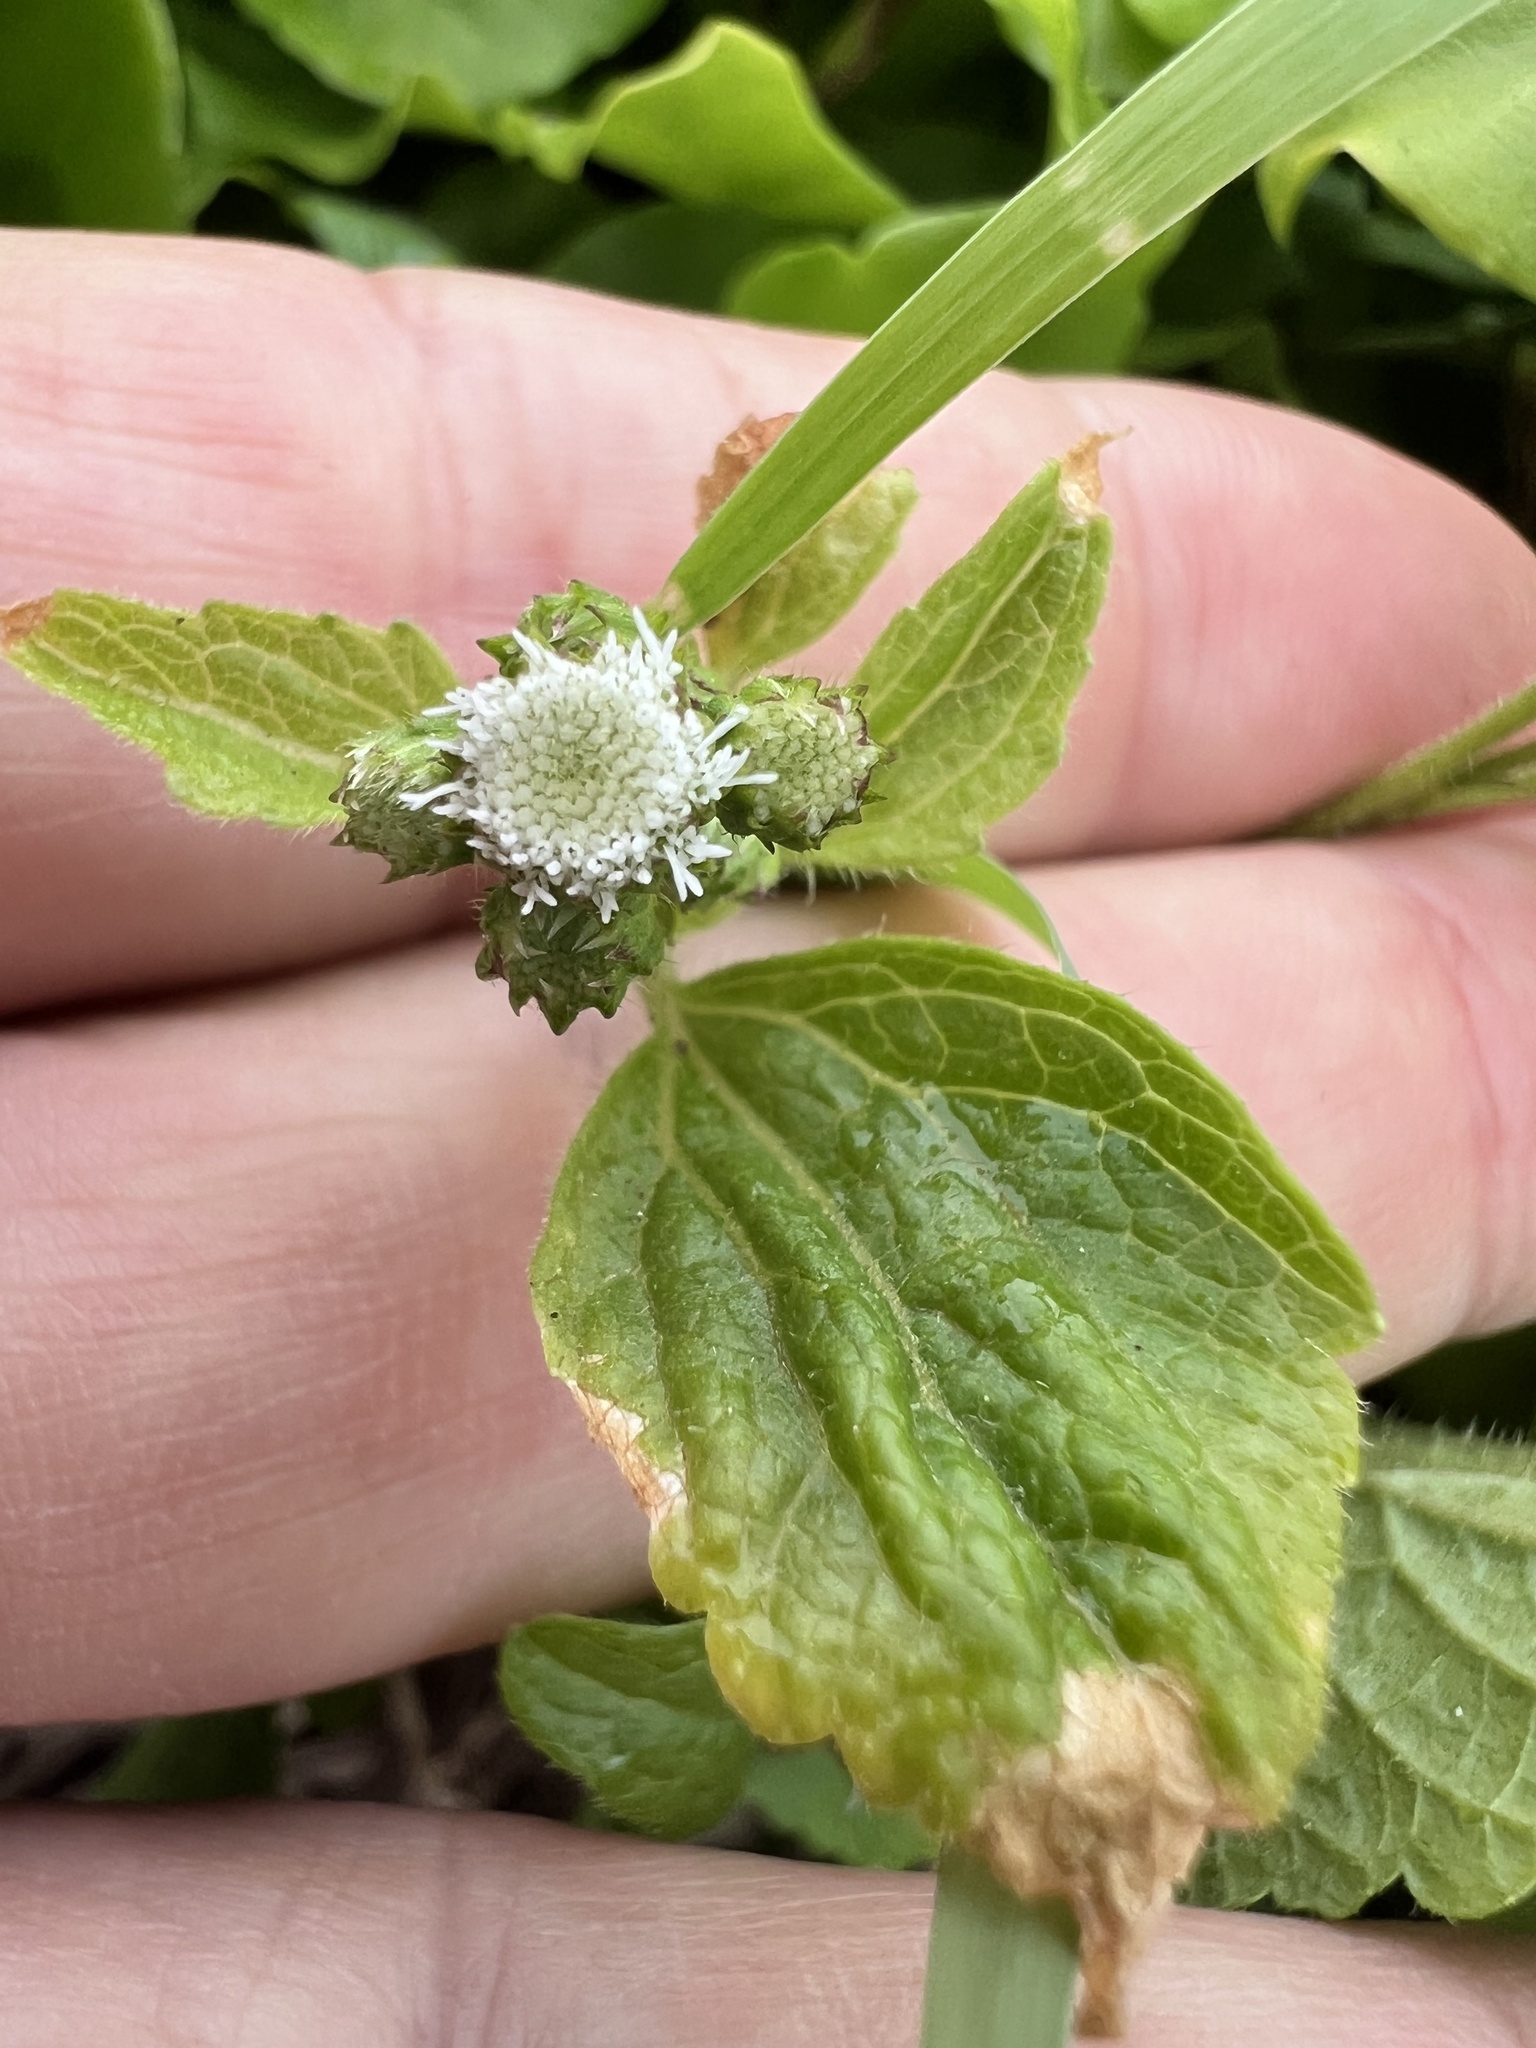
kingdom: Plantae
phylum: Tracheophyta
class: Magnoliopsida
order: Asterales
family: Asteraceae
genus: Ageratum
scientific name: Ageratum conyzoides
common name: Tropical whiteweed
